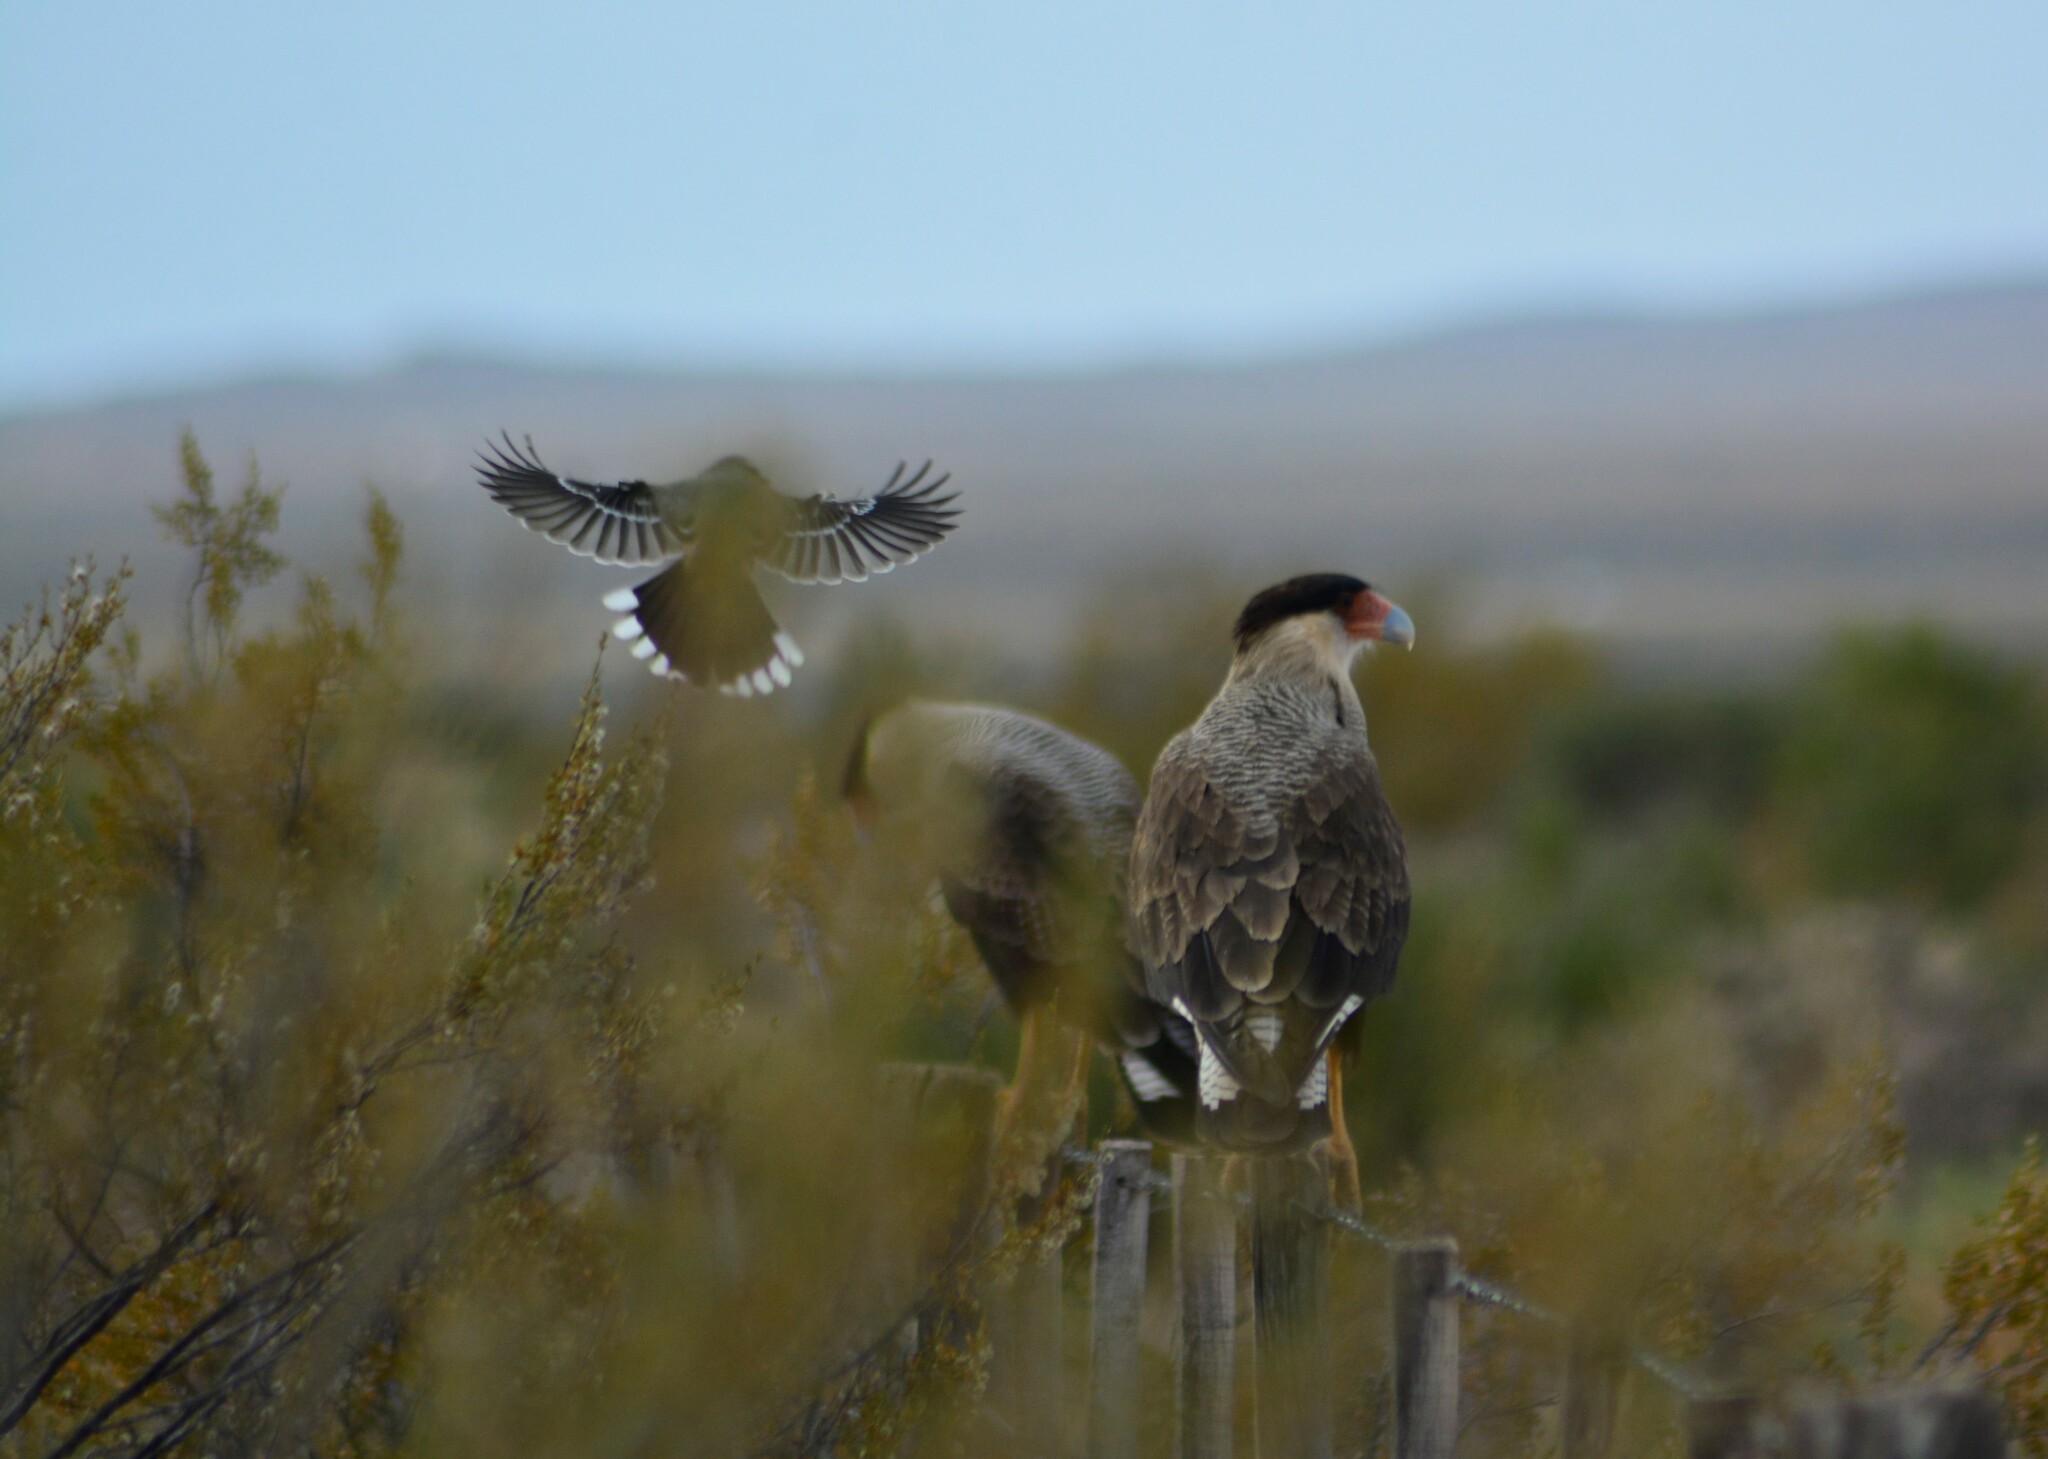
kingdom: Animalia
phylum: Chordata
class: Aves
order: Falconiformes
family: Falconidae
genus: Caracara
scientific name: Caracara plancus
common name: Southern caracara
